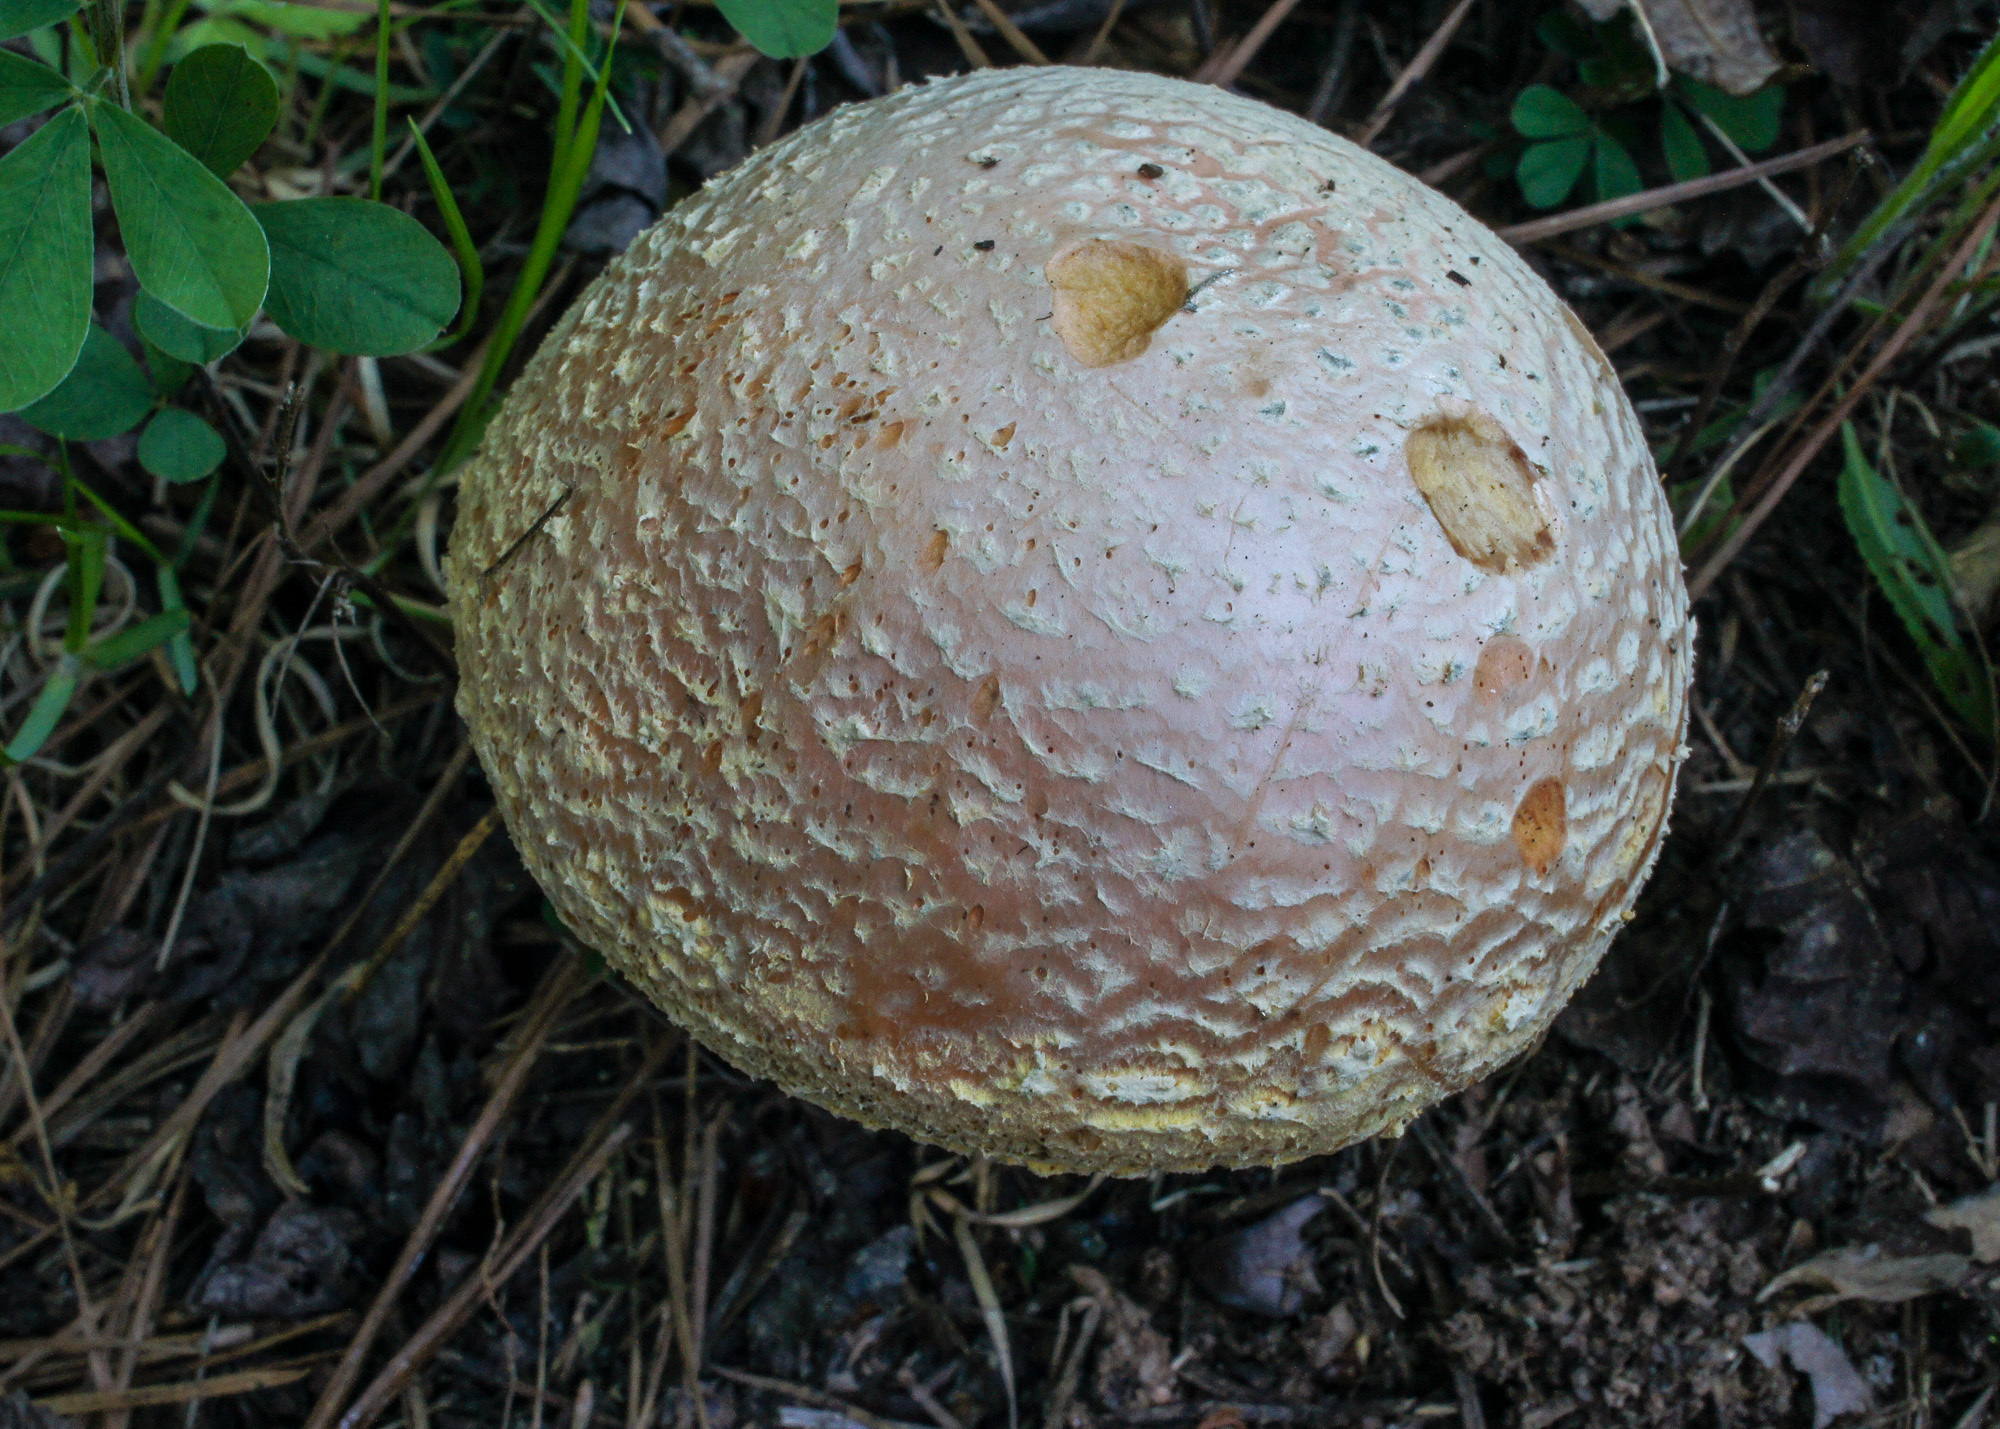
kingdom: Fungi
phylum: Basidiomycota
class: Agaricomycetes
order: Agaricales
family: Amanitaceae
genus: Amanita
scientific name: Amanita persicina
